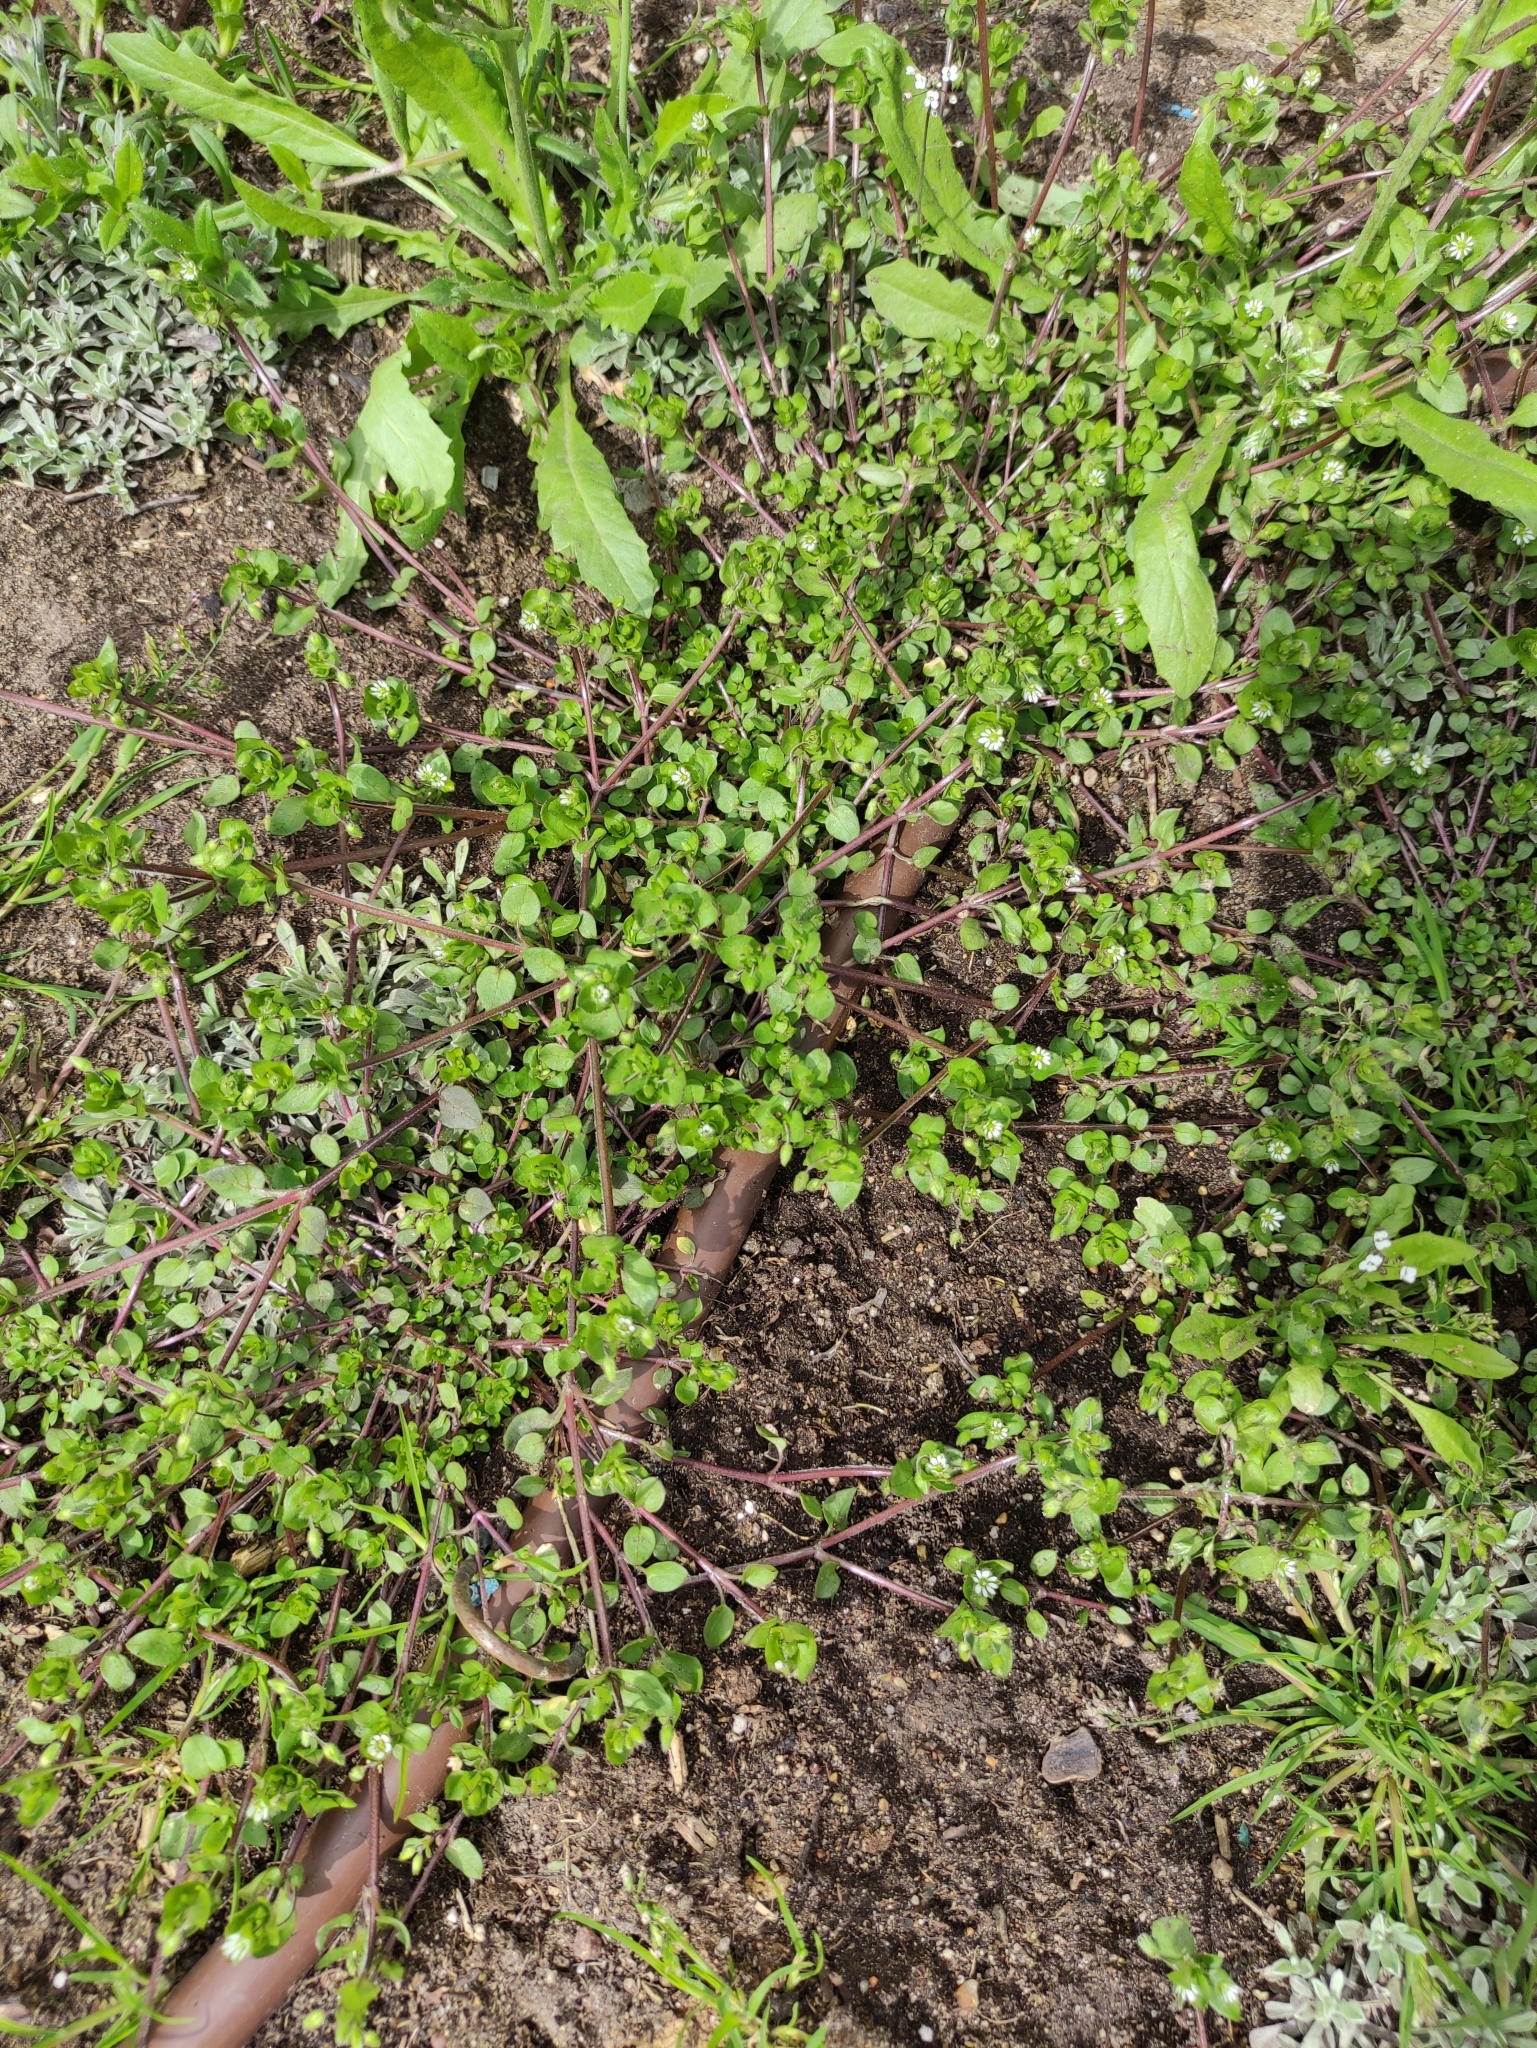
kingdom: Plantae
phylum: Tracheophyta
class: Magnoliopsida
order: Caryophyllales
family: Caryophyllaceae
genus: Stellaria
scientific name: Stellaria media
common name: Common chickweed
